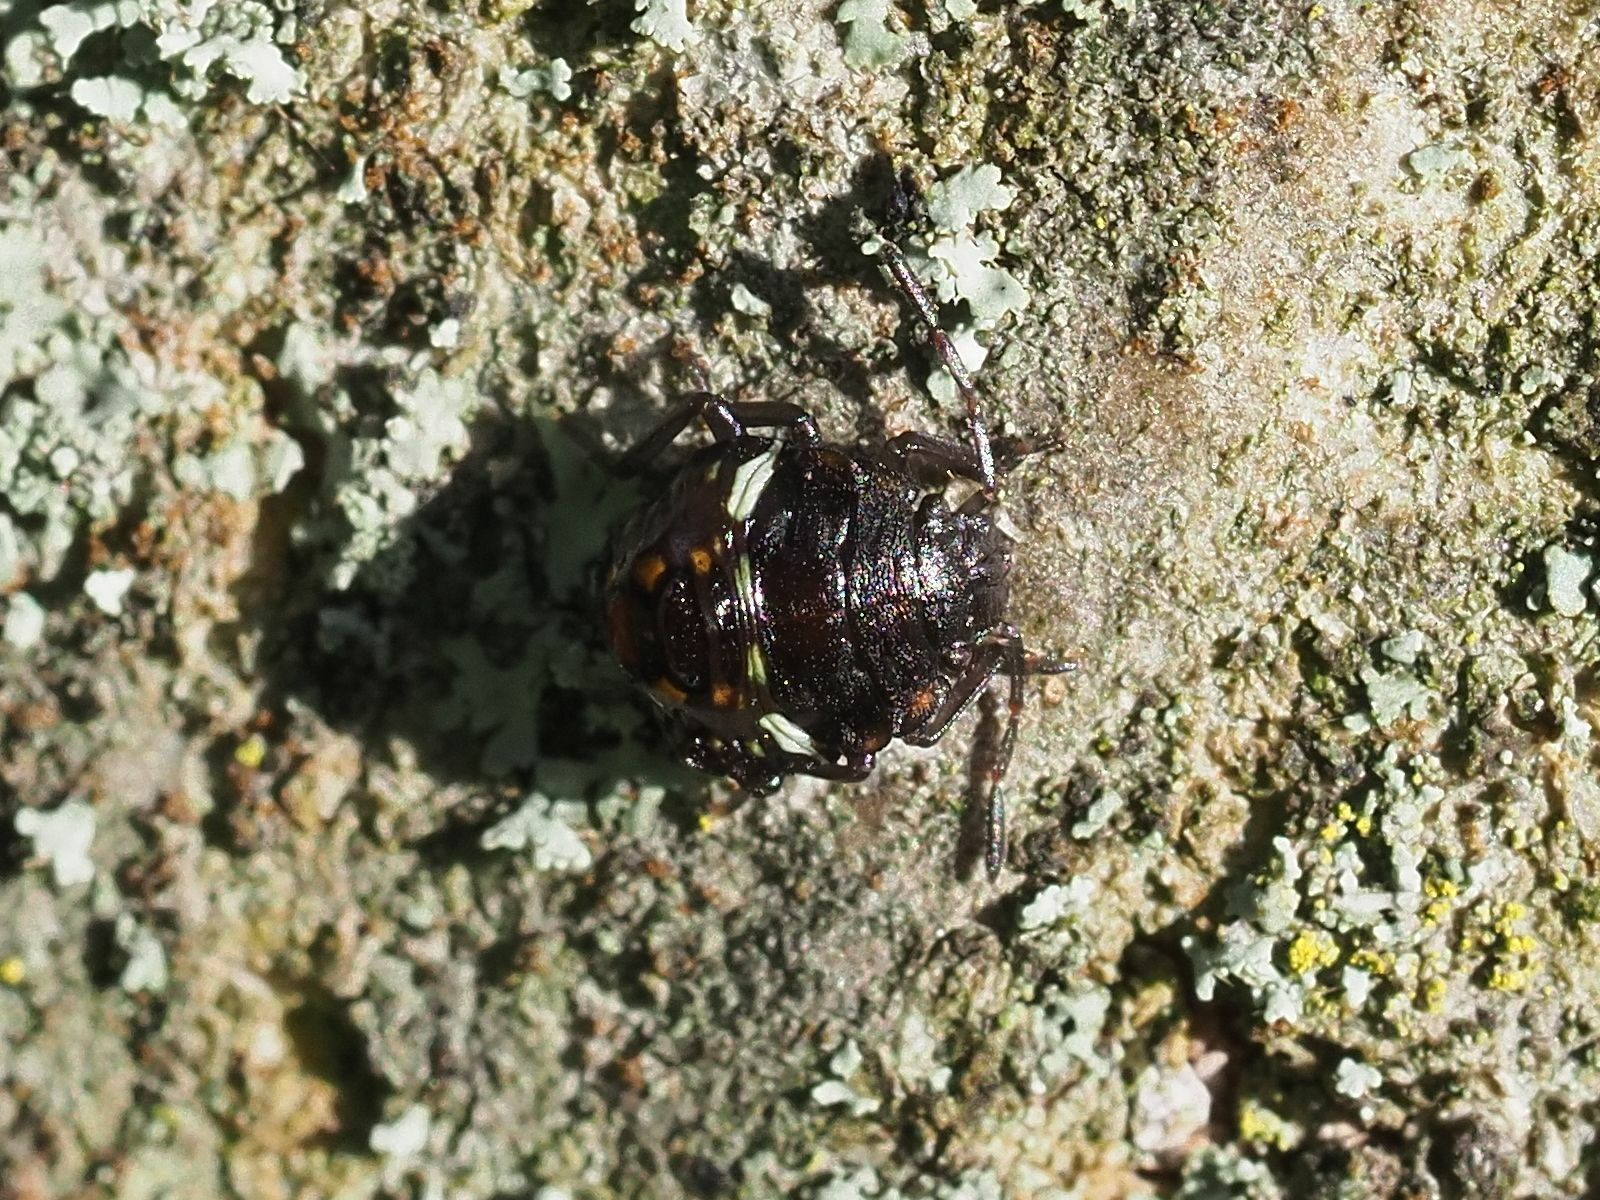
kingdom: Animalia
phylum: Arthropoda
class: Insecta
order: Hemiptera
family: Pentatomidae
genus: Nezara
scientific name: Nezara viridula
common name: Southern green stink bug
